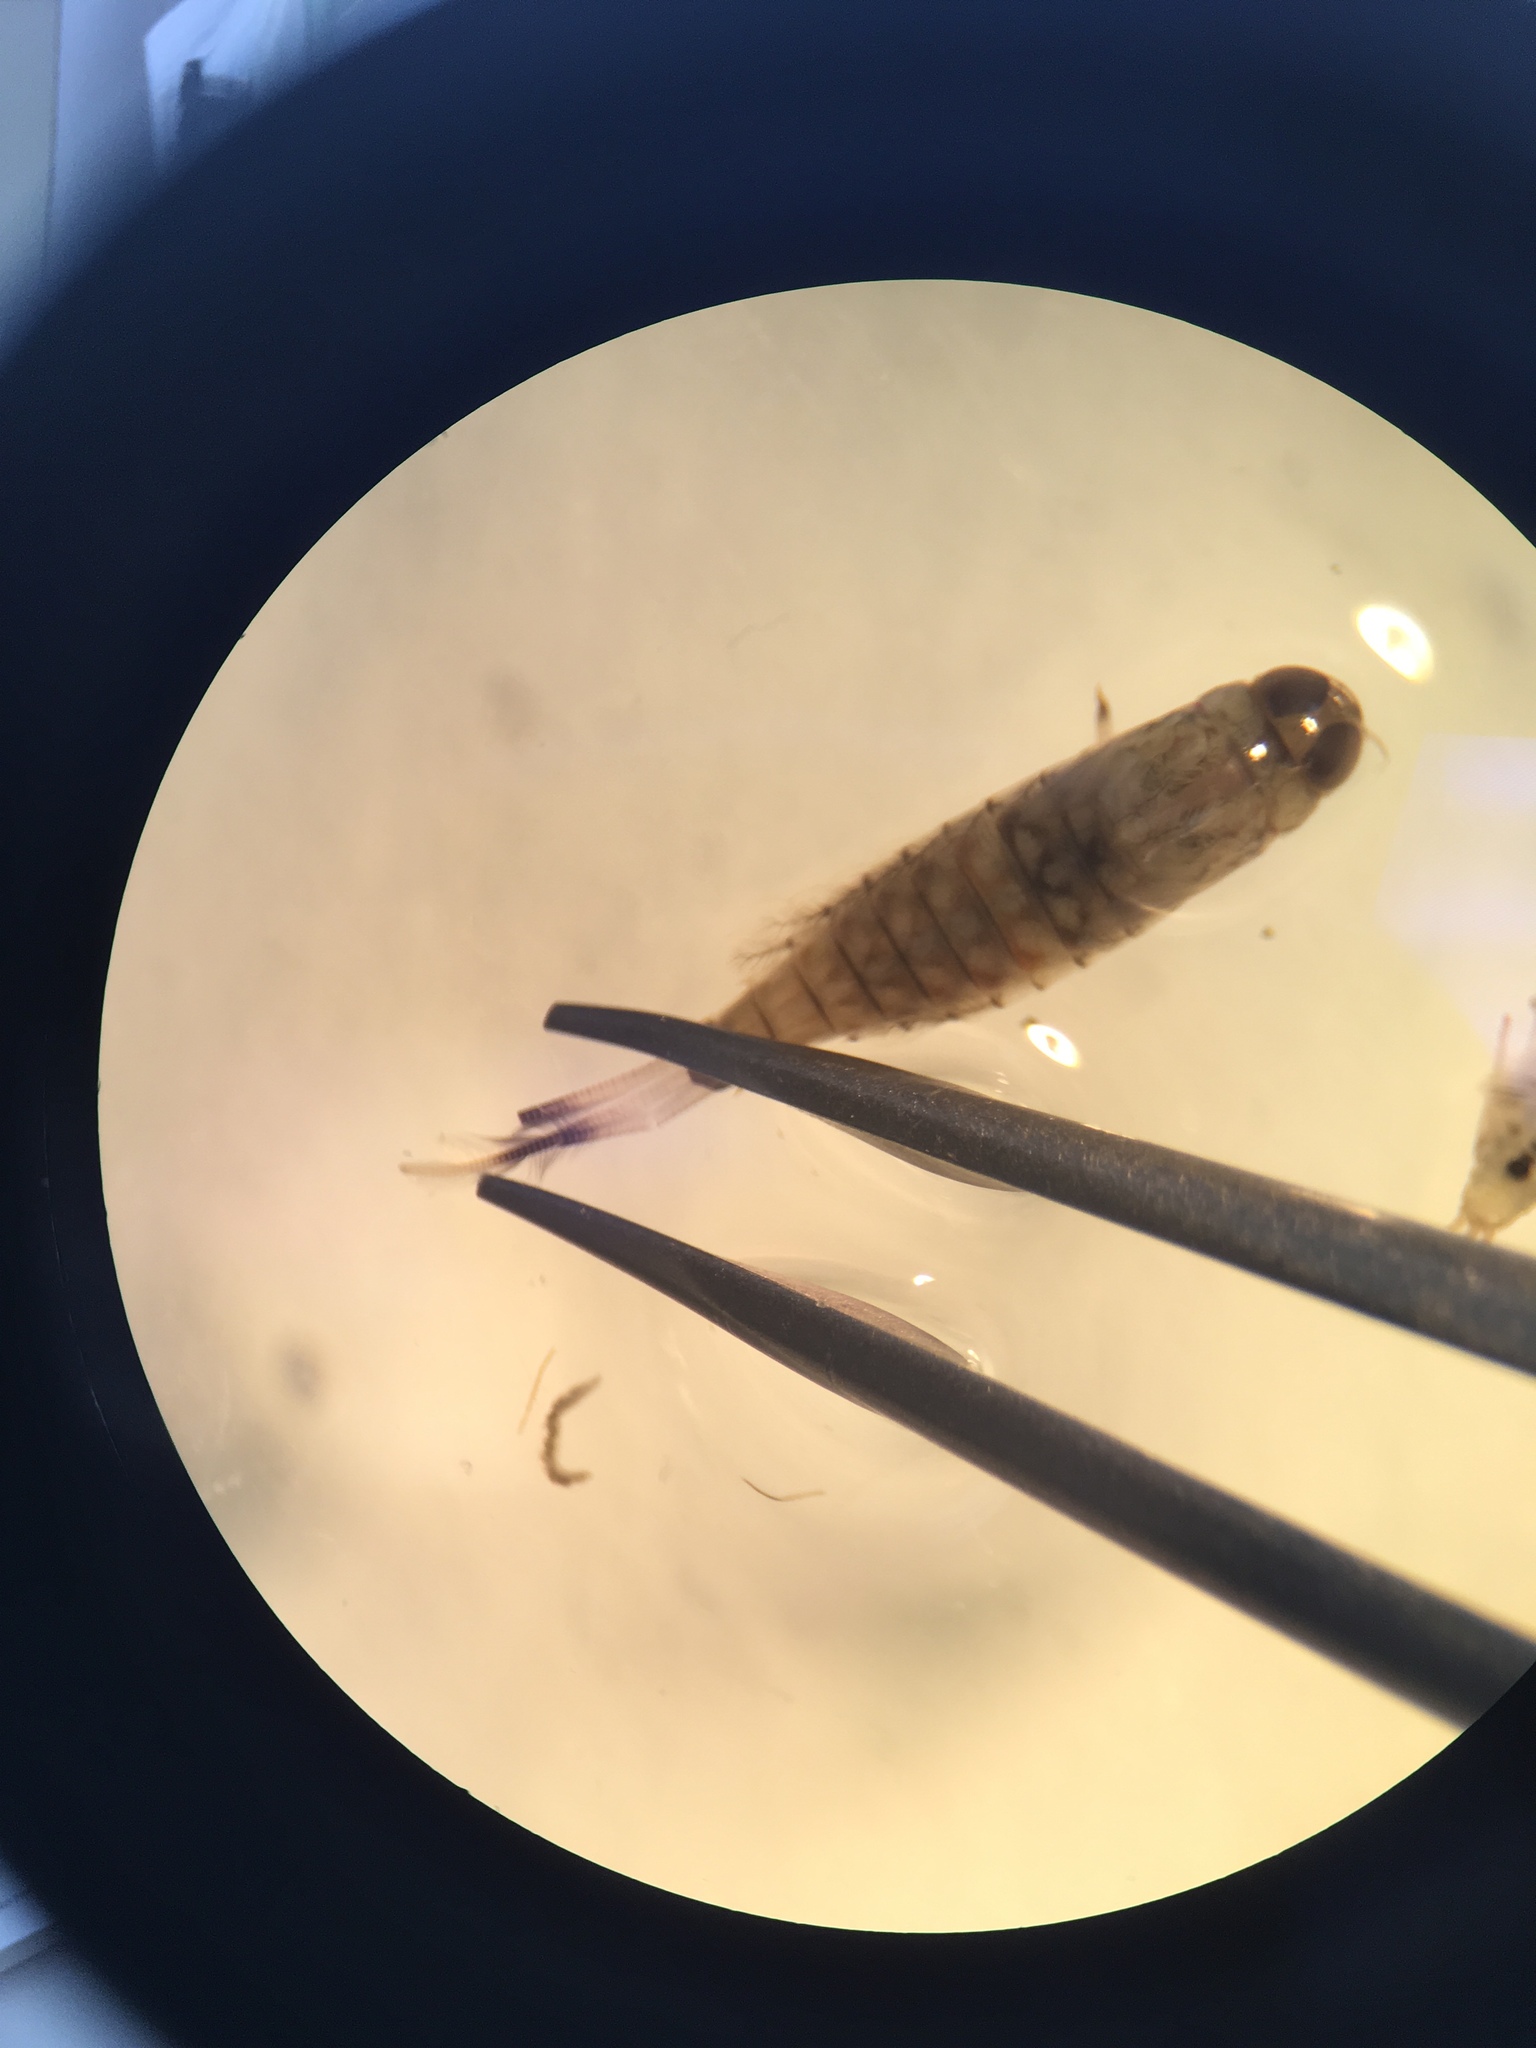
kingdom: Animalia
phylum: Arthropoda
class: Insecta
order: Ephemeroptera
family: Nesameletidae
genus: Nesameletus
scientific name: Nesameletus ornatus
